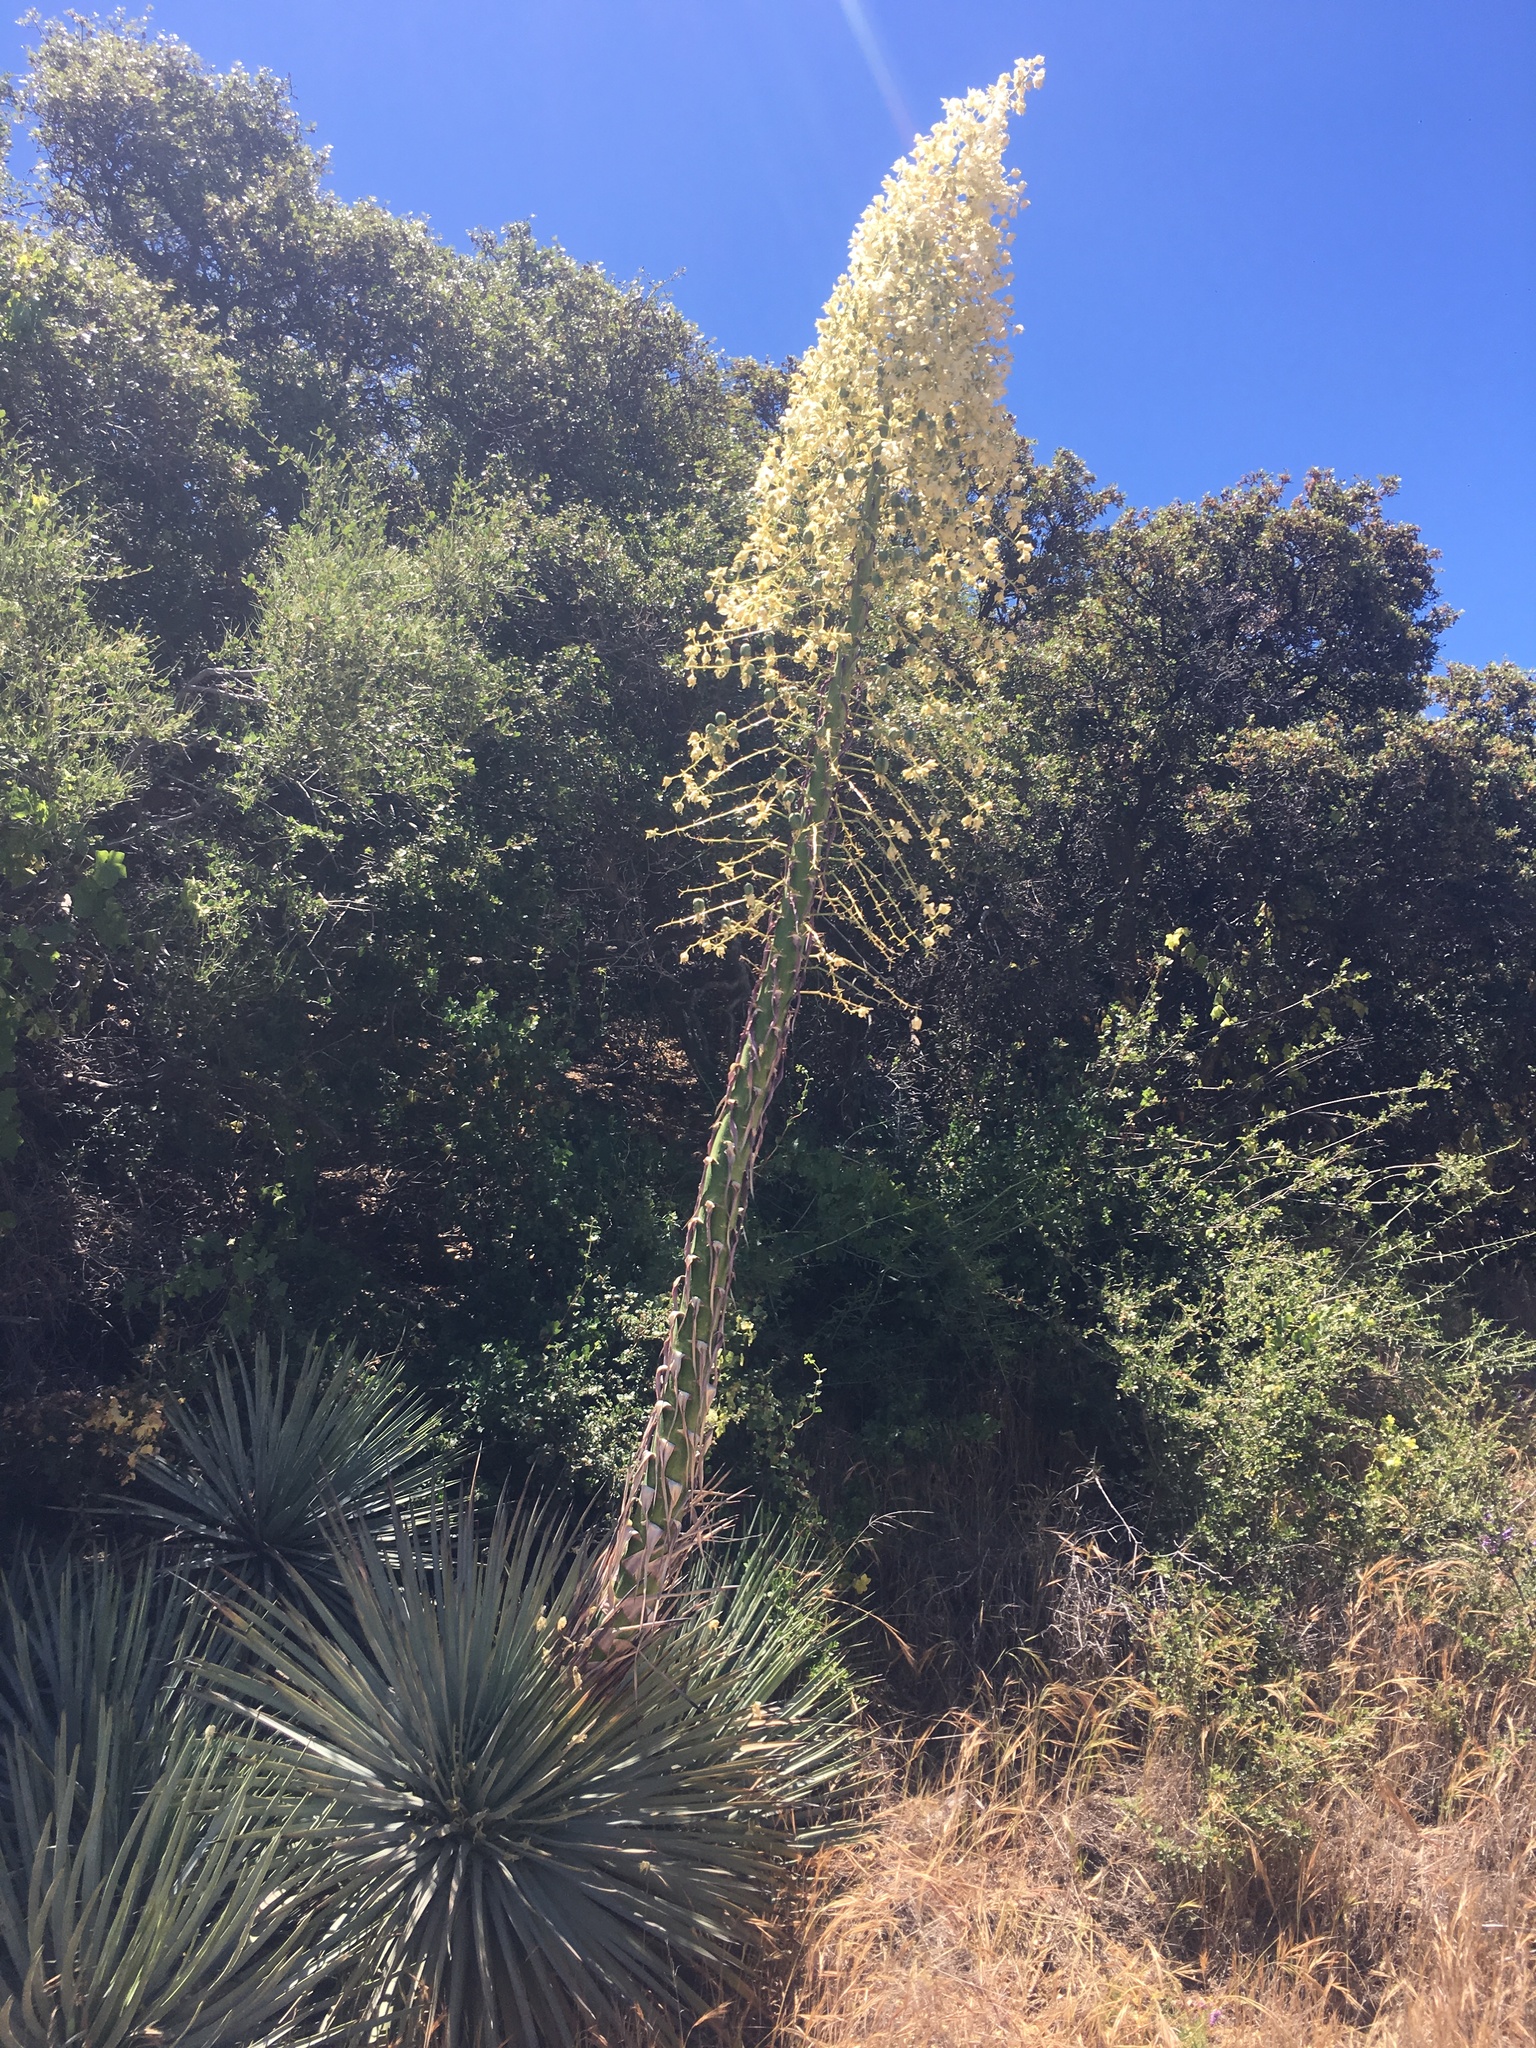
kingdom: Plantae
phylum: Tracheophyta
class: Liliopsida
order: Asparagales
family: Asparagaceae
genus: Hesperoyucca
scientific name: Hesperoyucca whipplei
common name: Our lord's-candle
